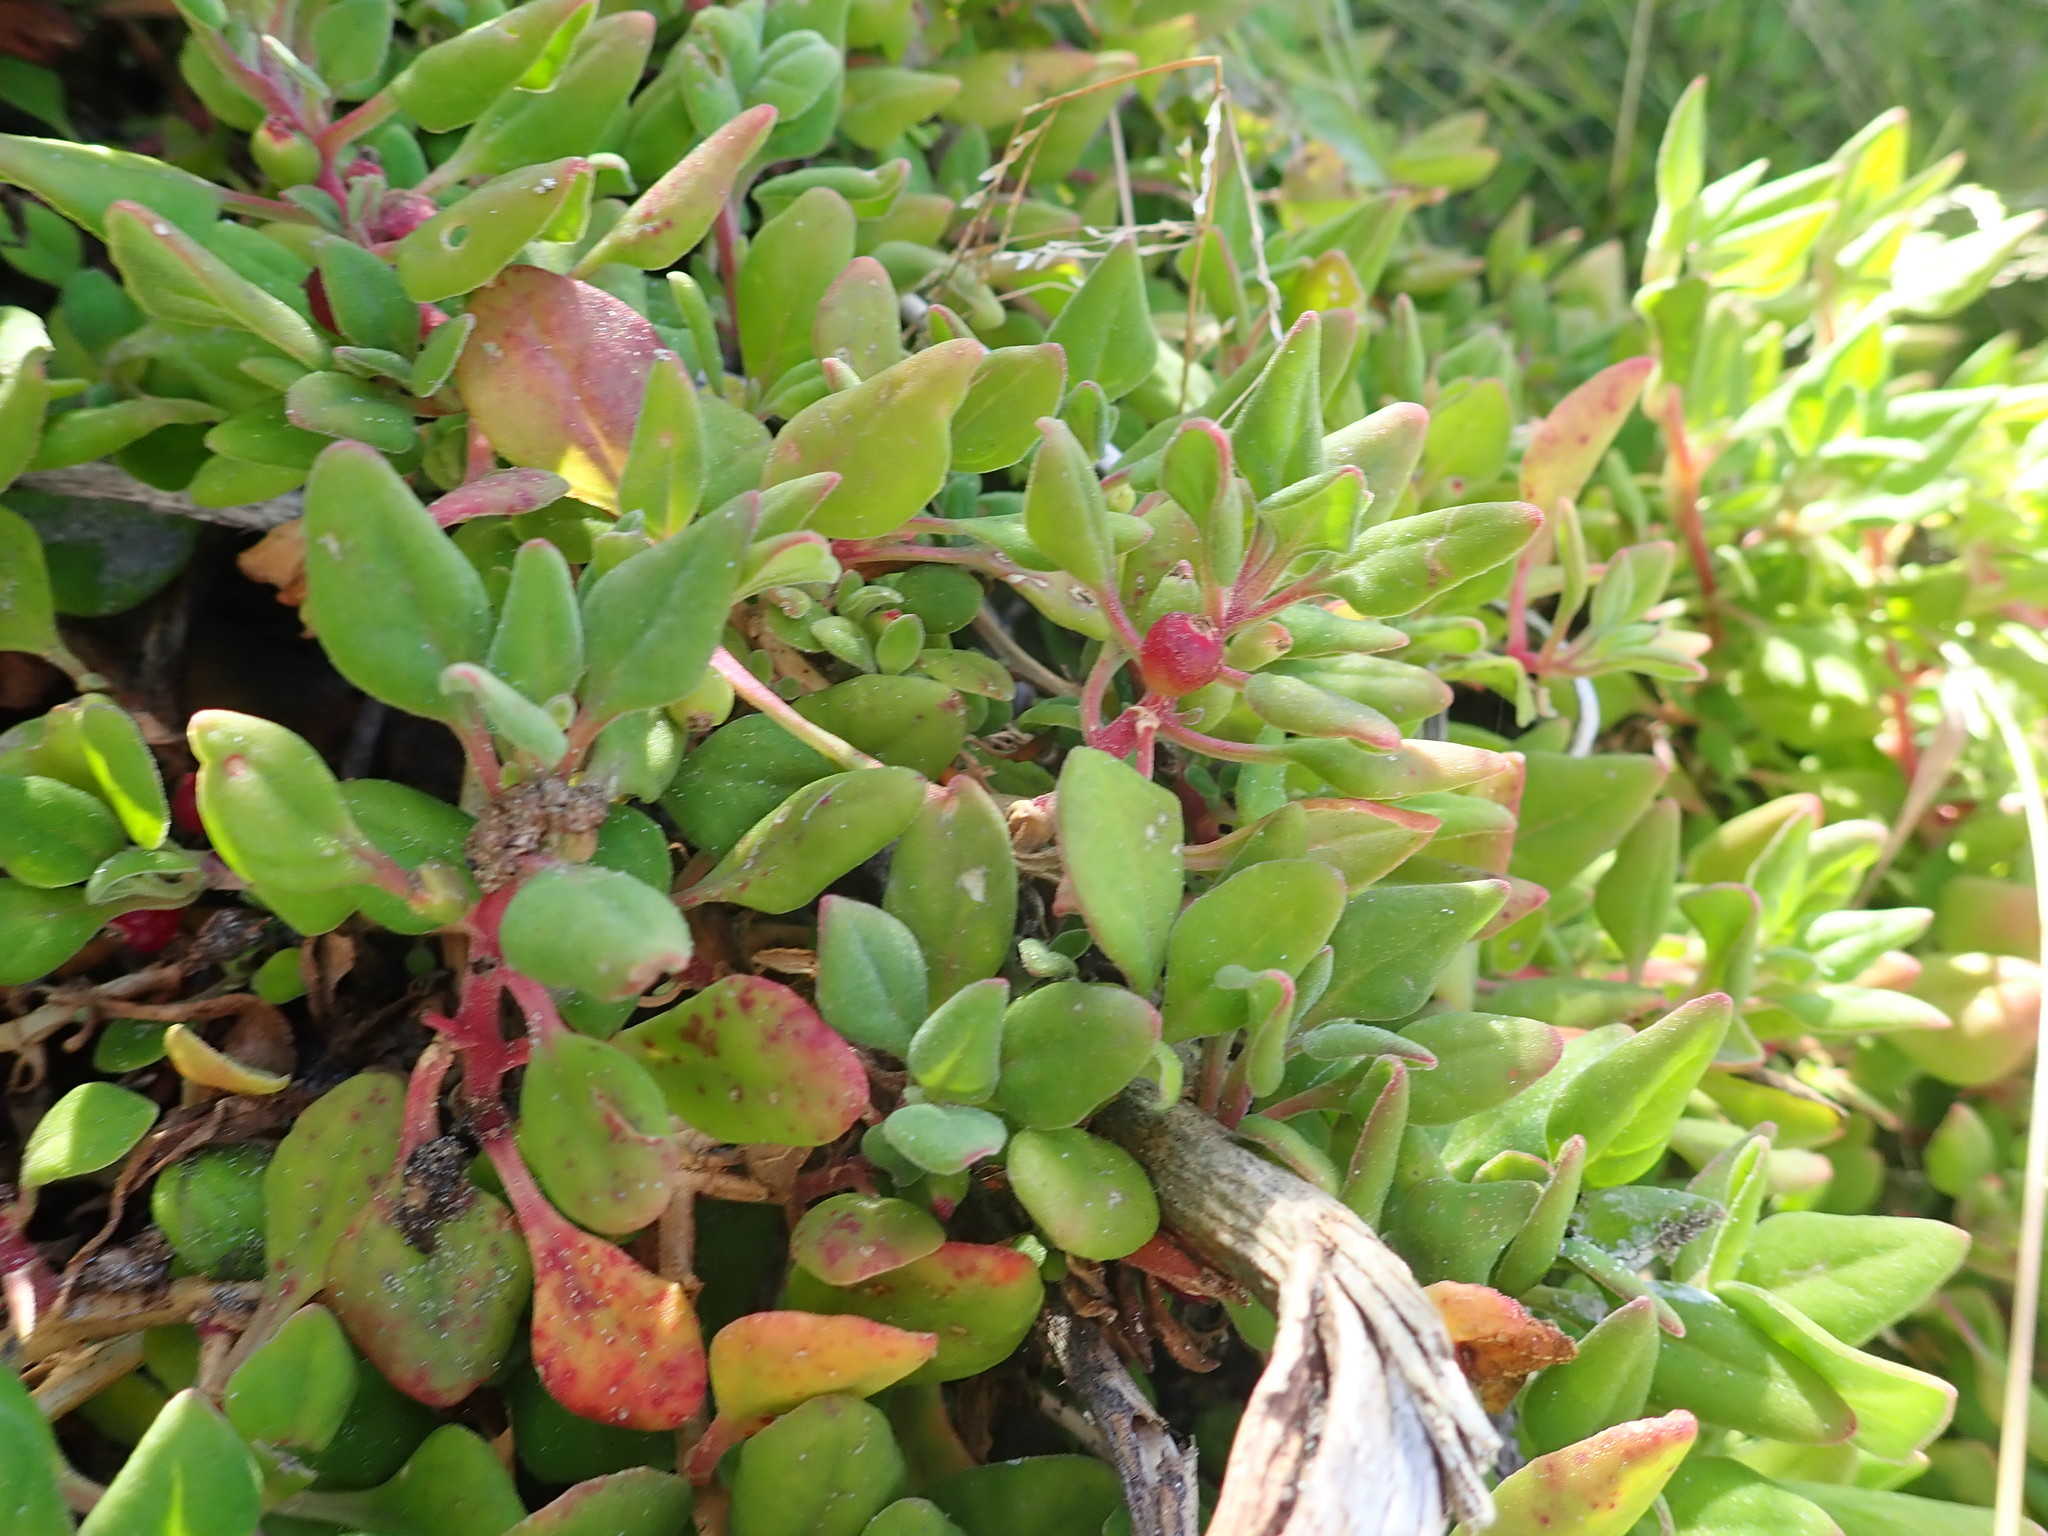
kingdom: Plantae
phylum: Tracheophyta
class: Magnoliopsida
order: Caryophyllales
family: Aizoaceae
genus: Tetragonia
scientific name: Tetragonia implexicoma
